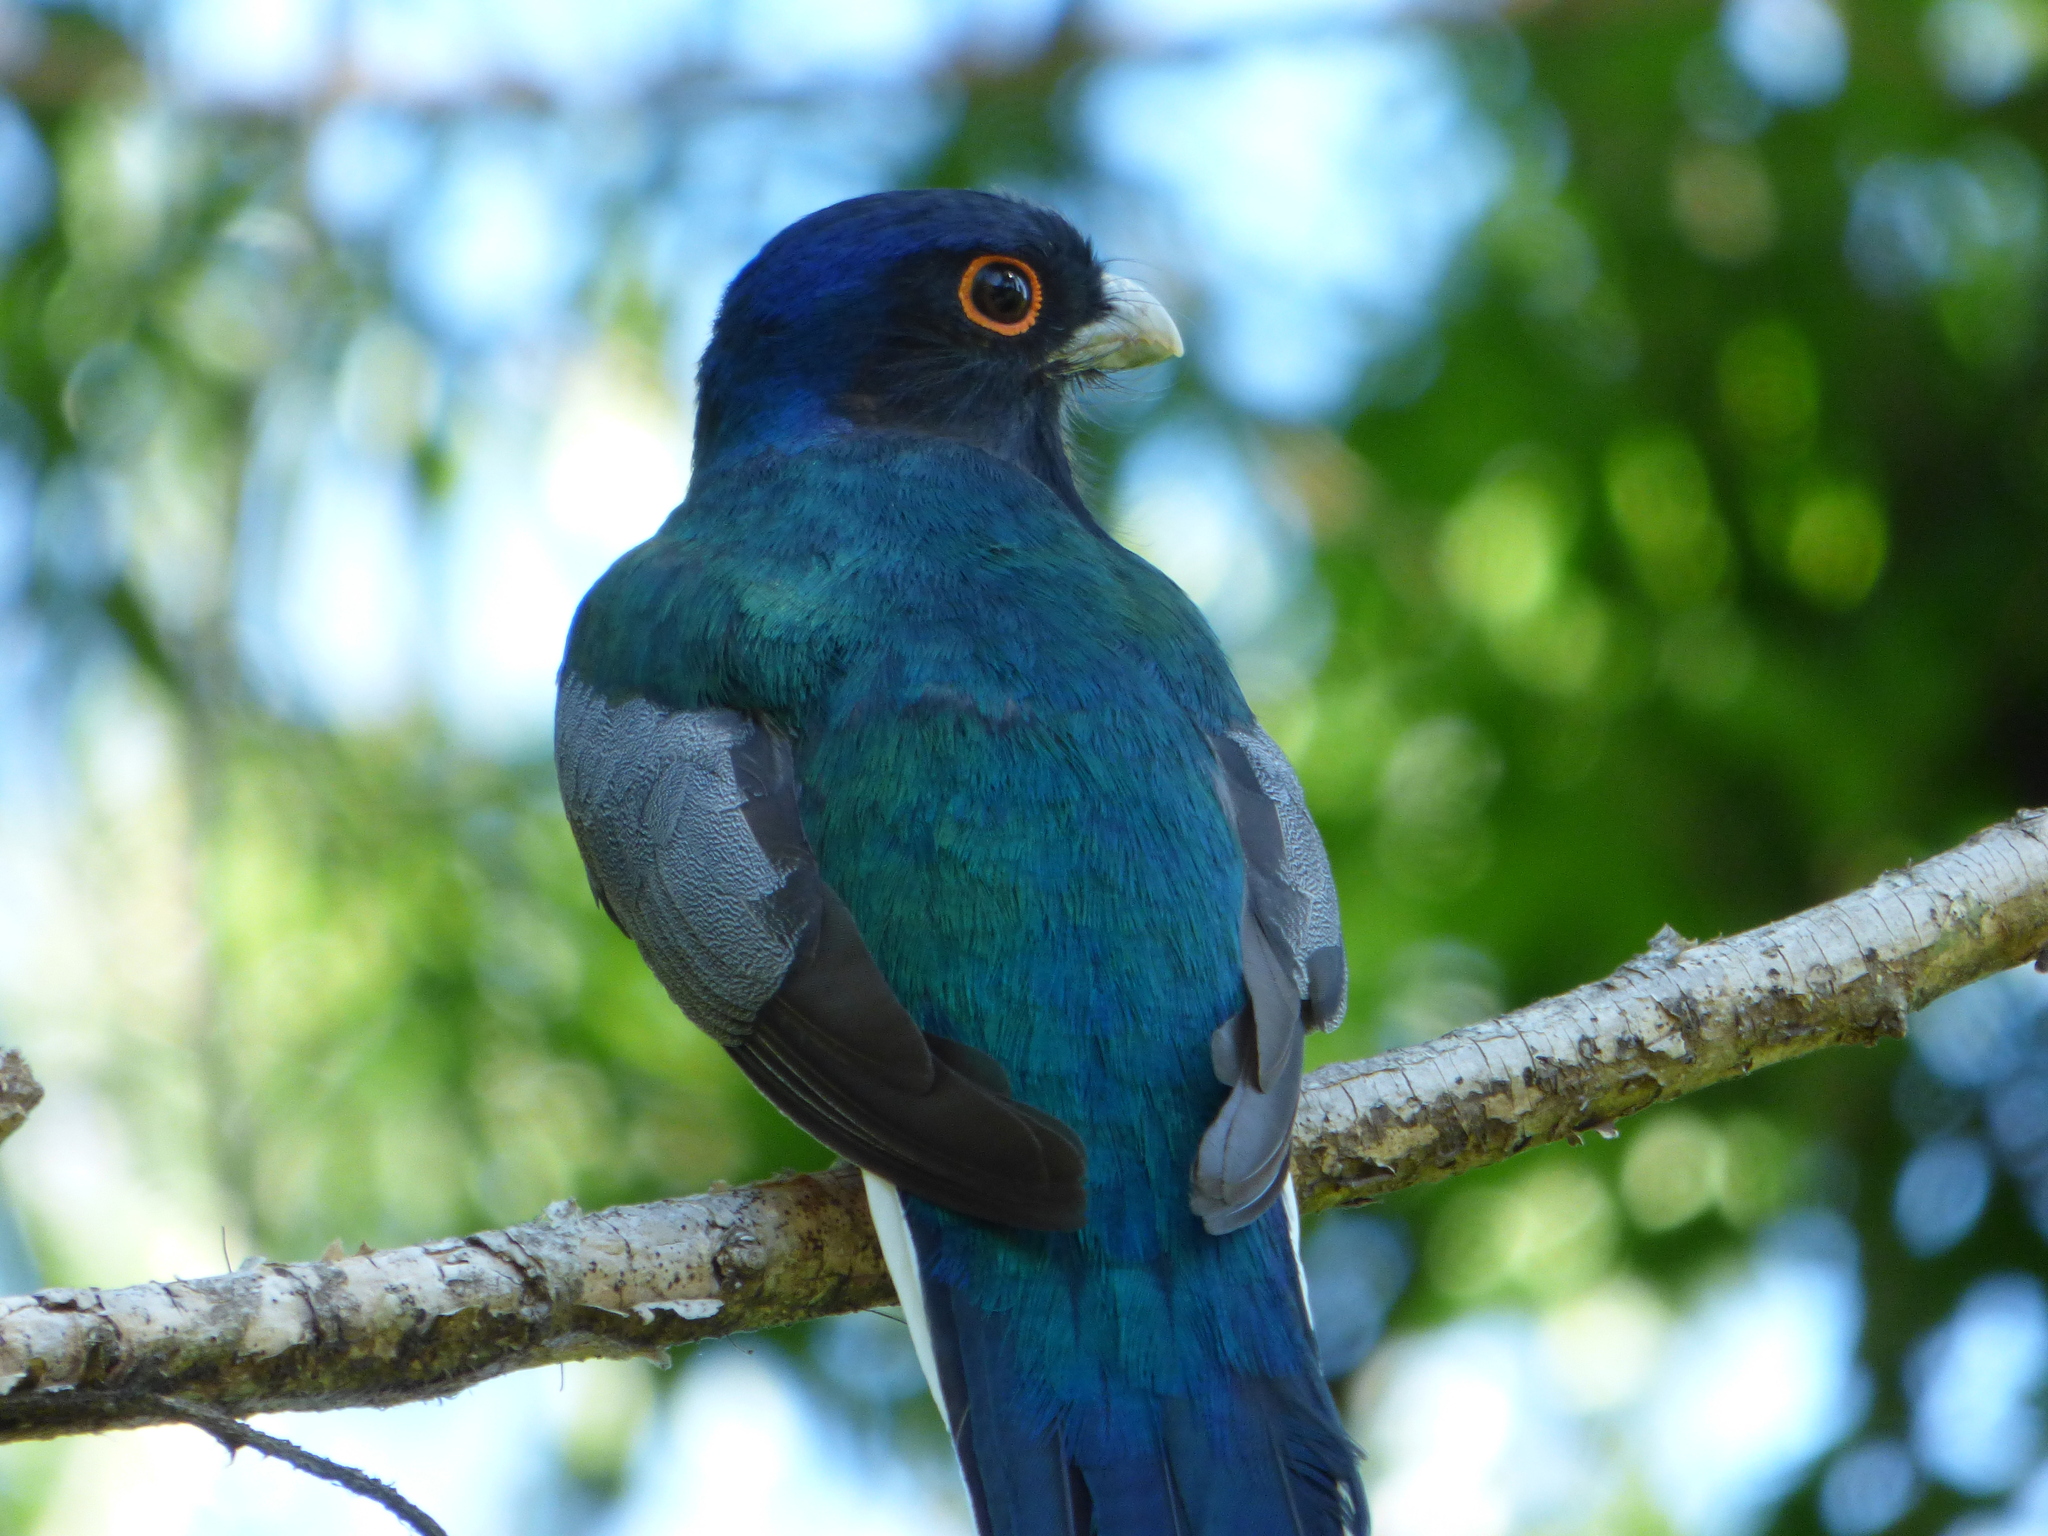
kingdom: Animalia
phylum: Chordata
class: Aves
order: Trogoniformes
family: Trogonidae
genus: Trogon
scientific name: Trogon surrucura
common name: Surucua trogon
